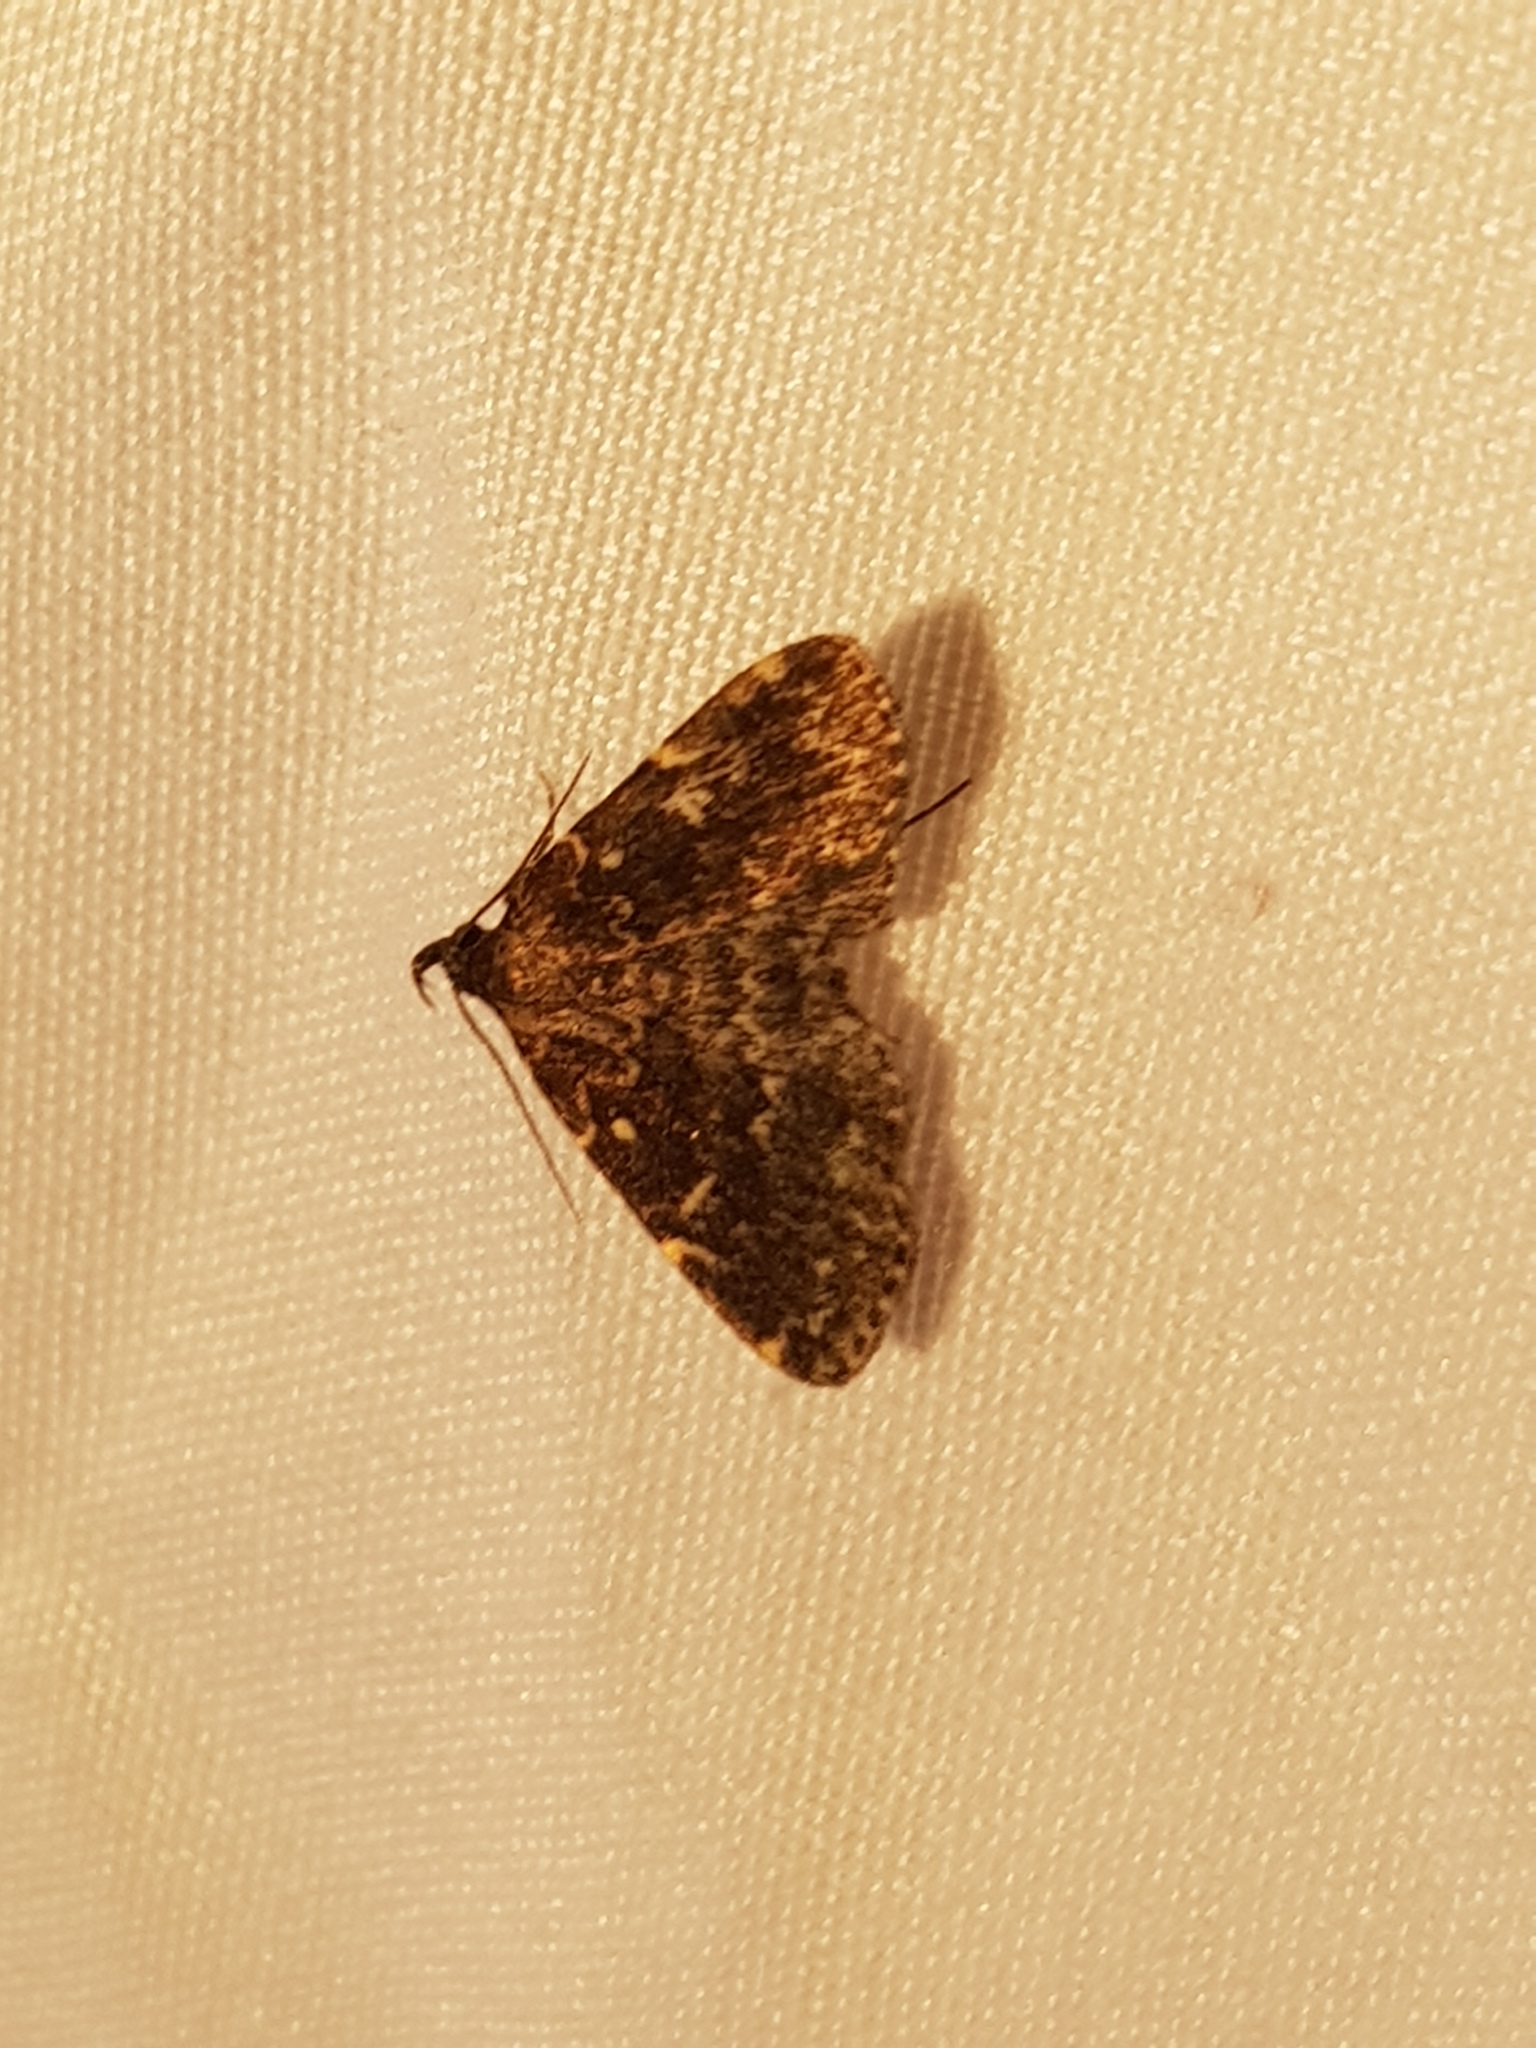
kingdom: Animalia
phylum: Arthropoda
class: Insecta
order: Lepidoptera
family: Erebidae
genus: Idia
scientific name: Idia scobialis
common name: Smoky idia moth
